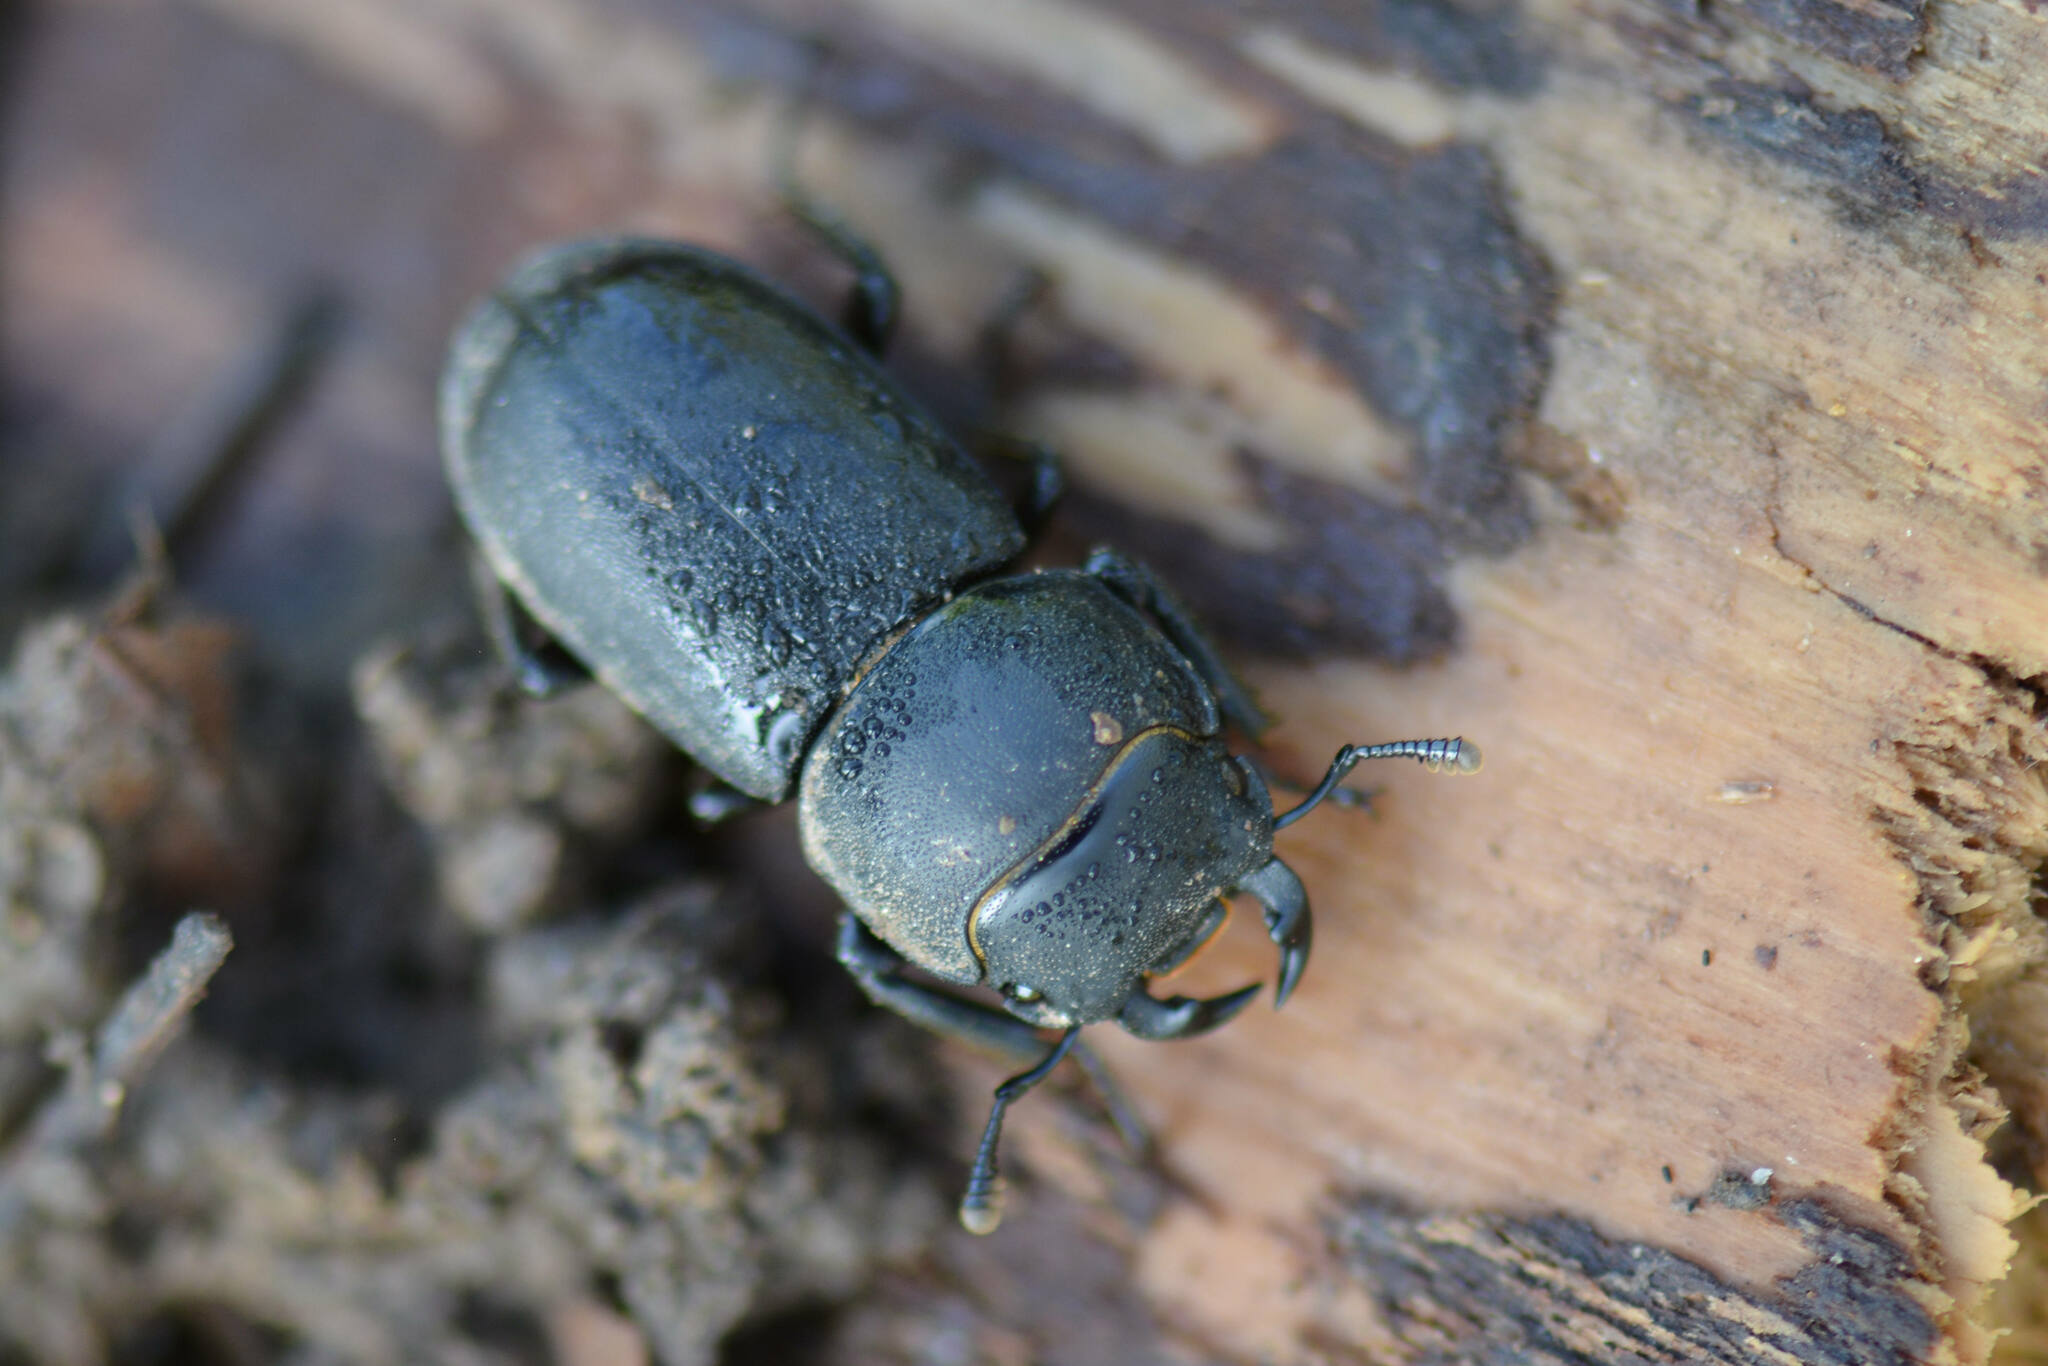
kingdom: Animalia
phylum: Arthropoda
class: Insecta
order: Coleoptera
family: Lucanidae
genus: Dorcus
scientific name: Dorcus parallelipipedus
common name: Lesser stag beetle
